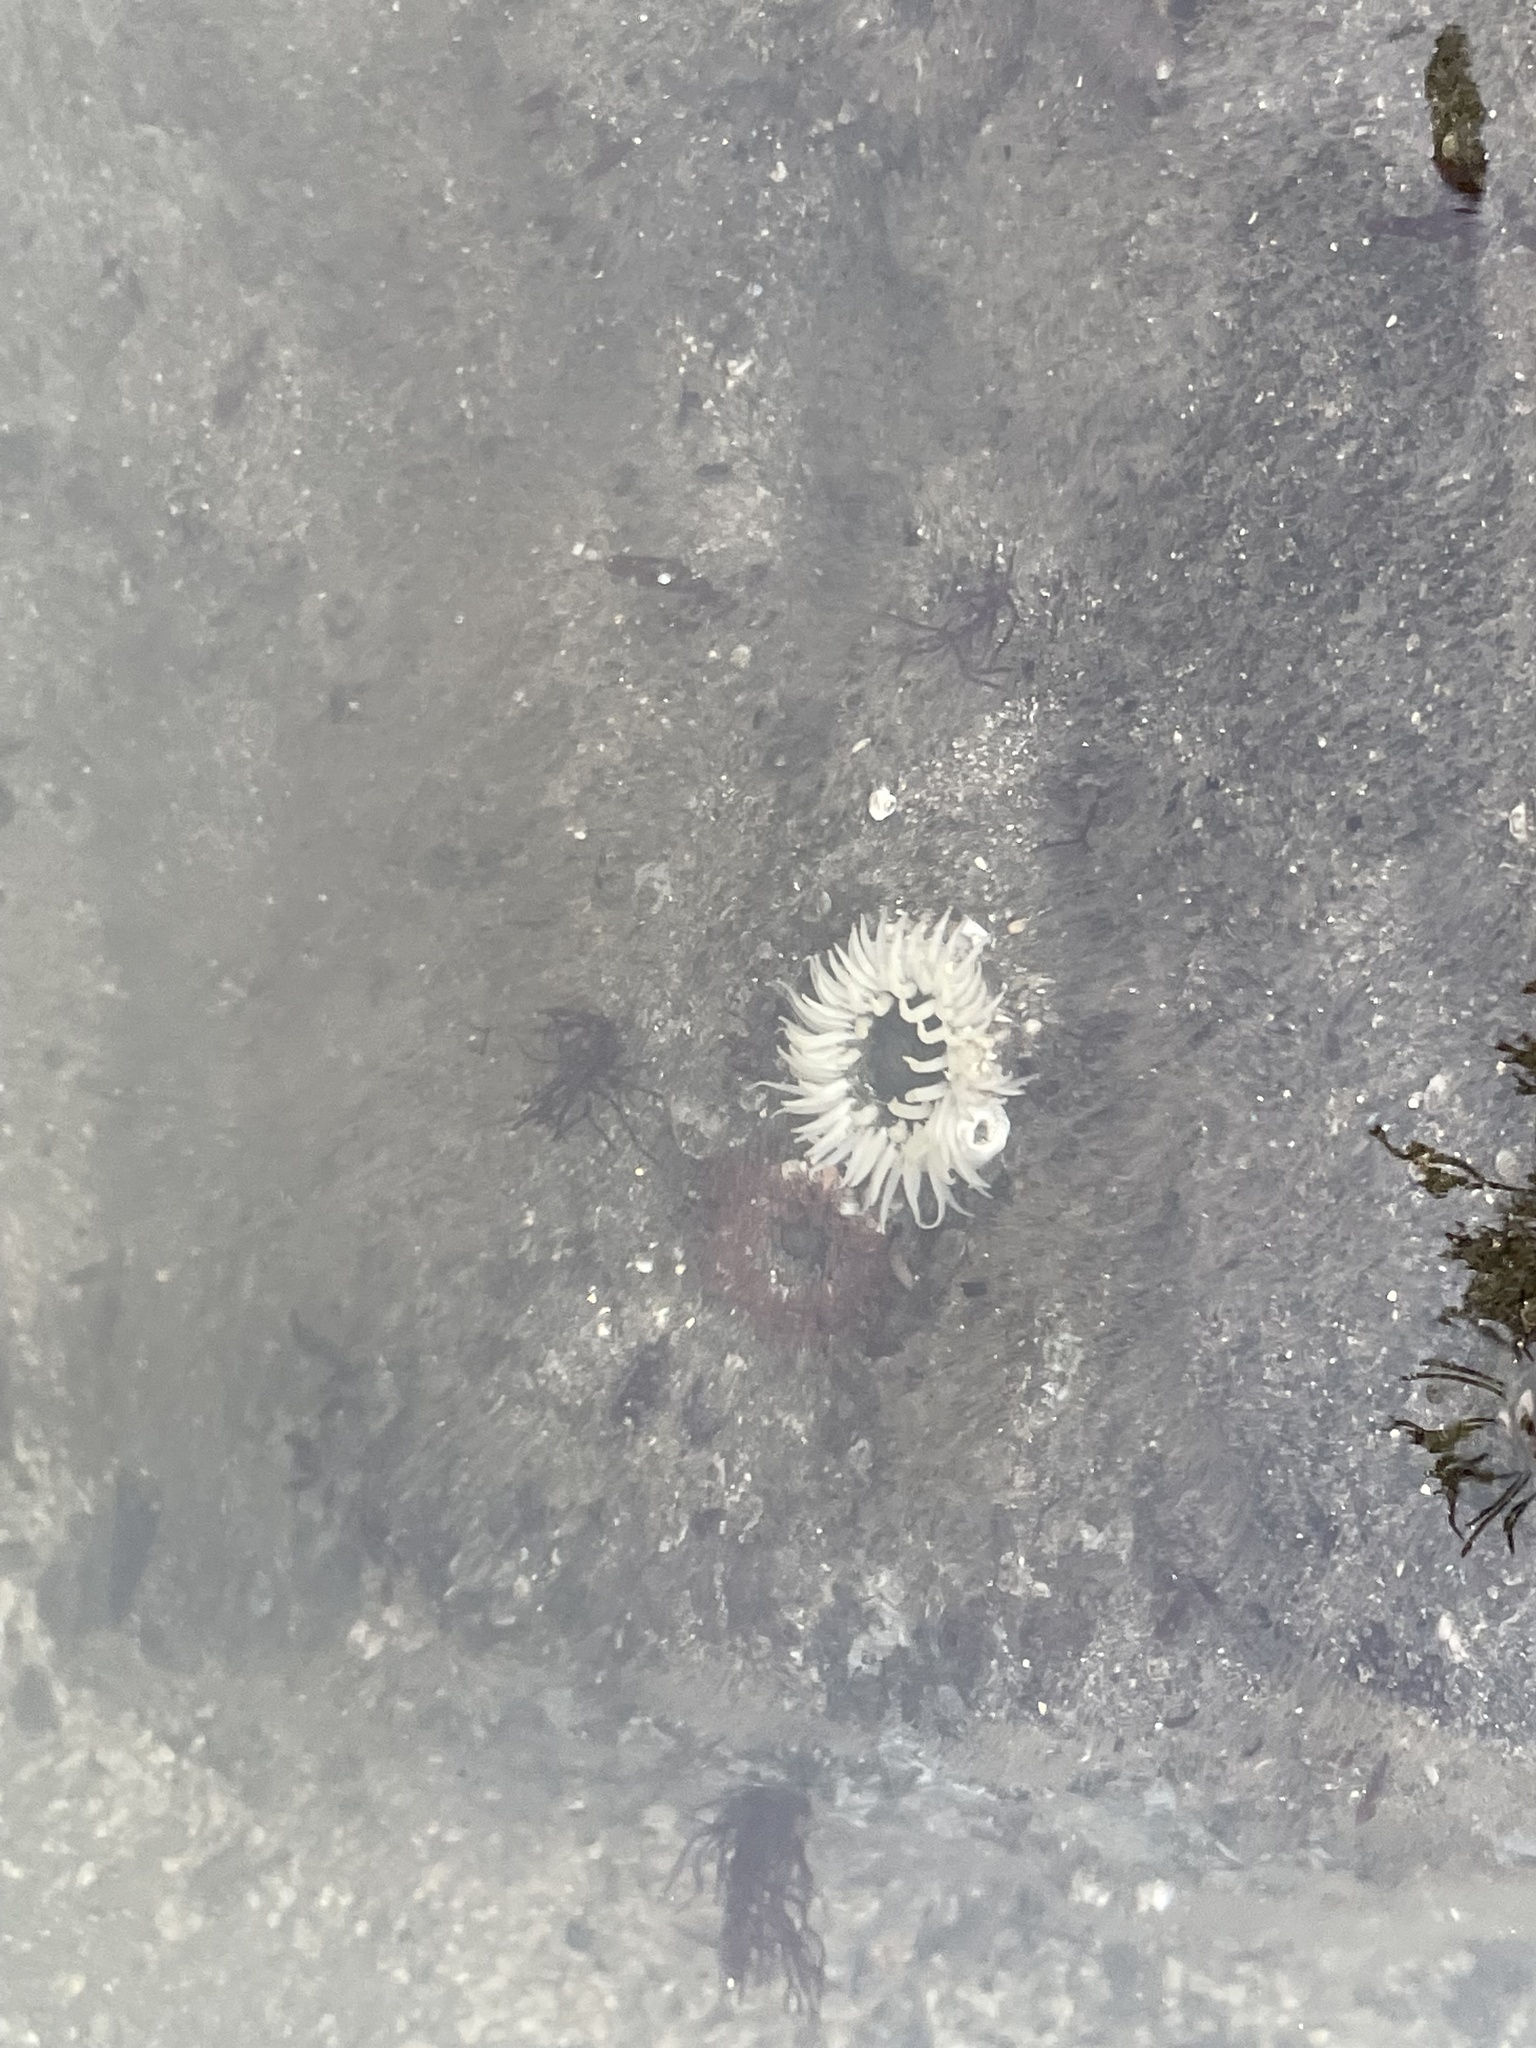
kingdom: Animalia
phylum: Cnidaria
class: Anthozoa
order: Actiniaria
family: Actiniidae
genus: Anthopleura
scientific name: Anthopleura artemisia
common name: Buried sea anemone
